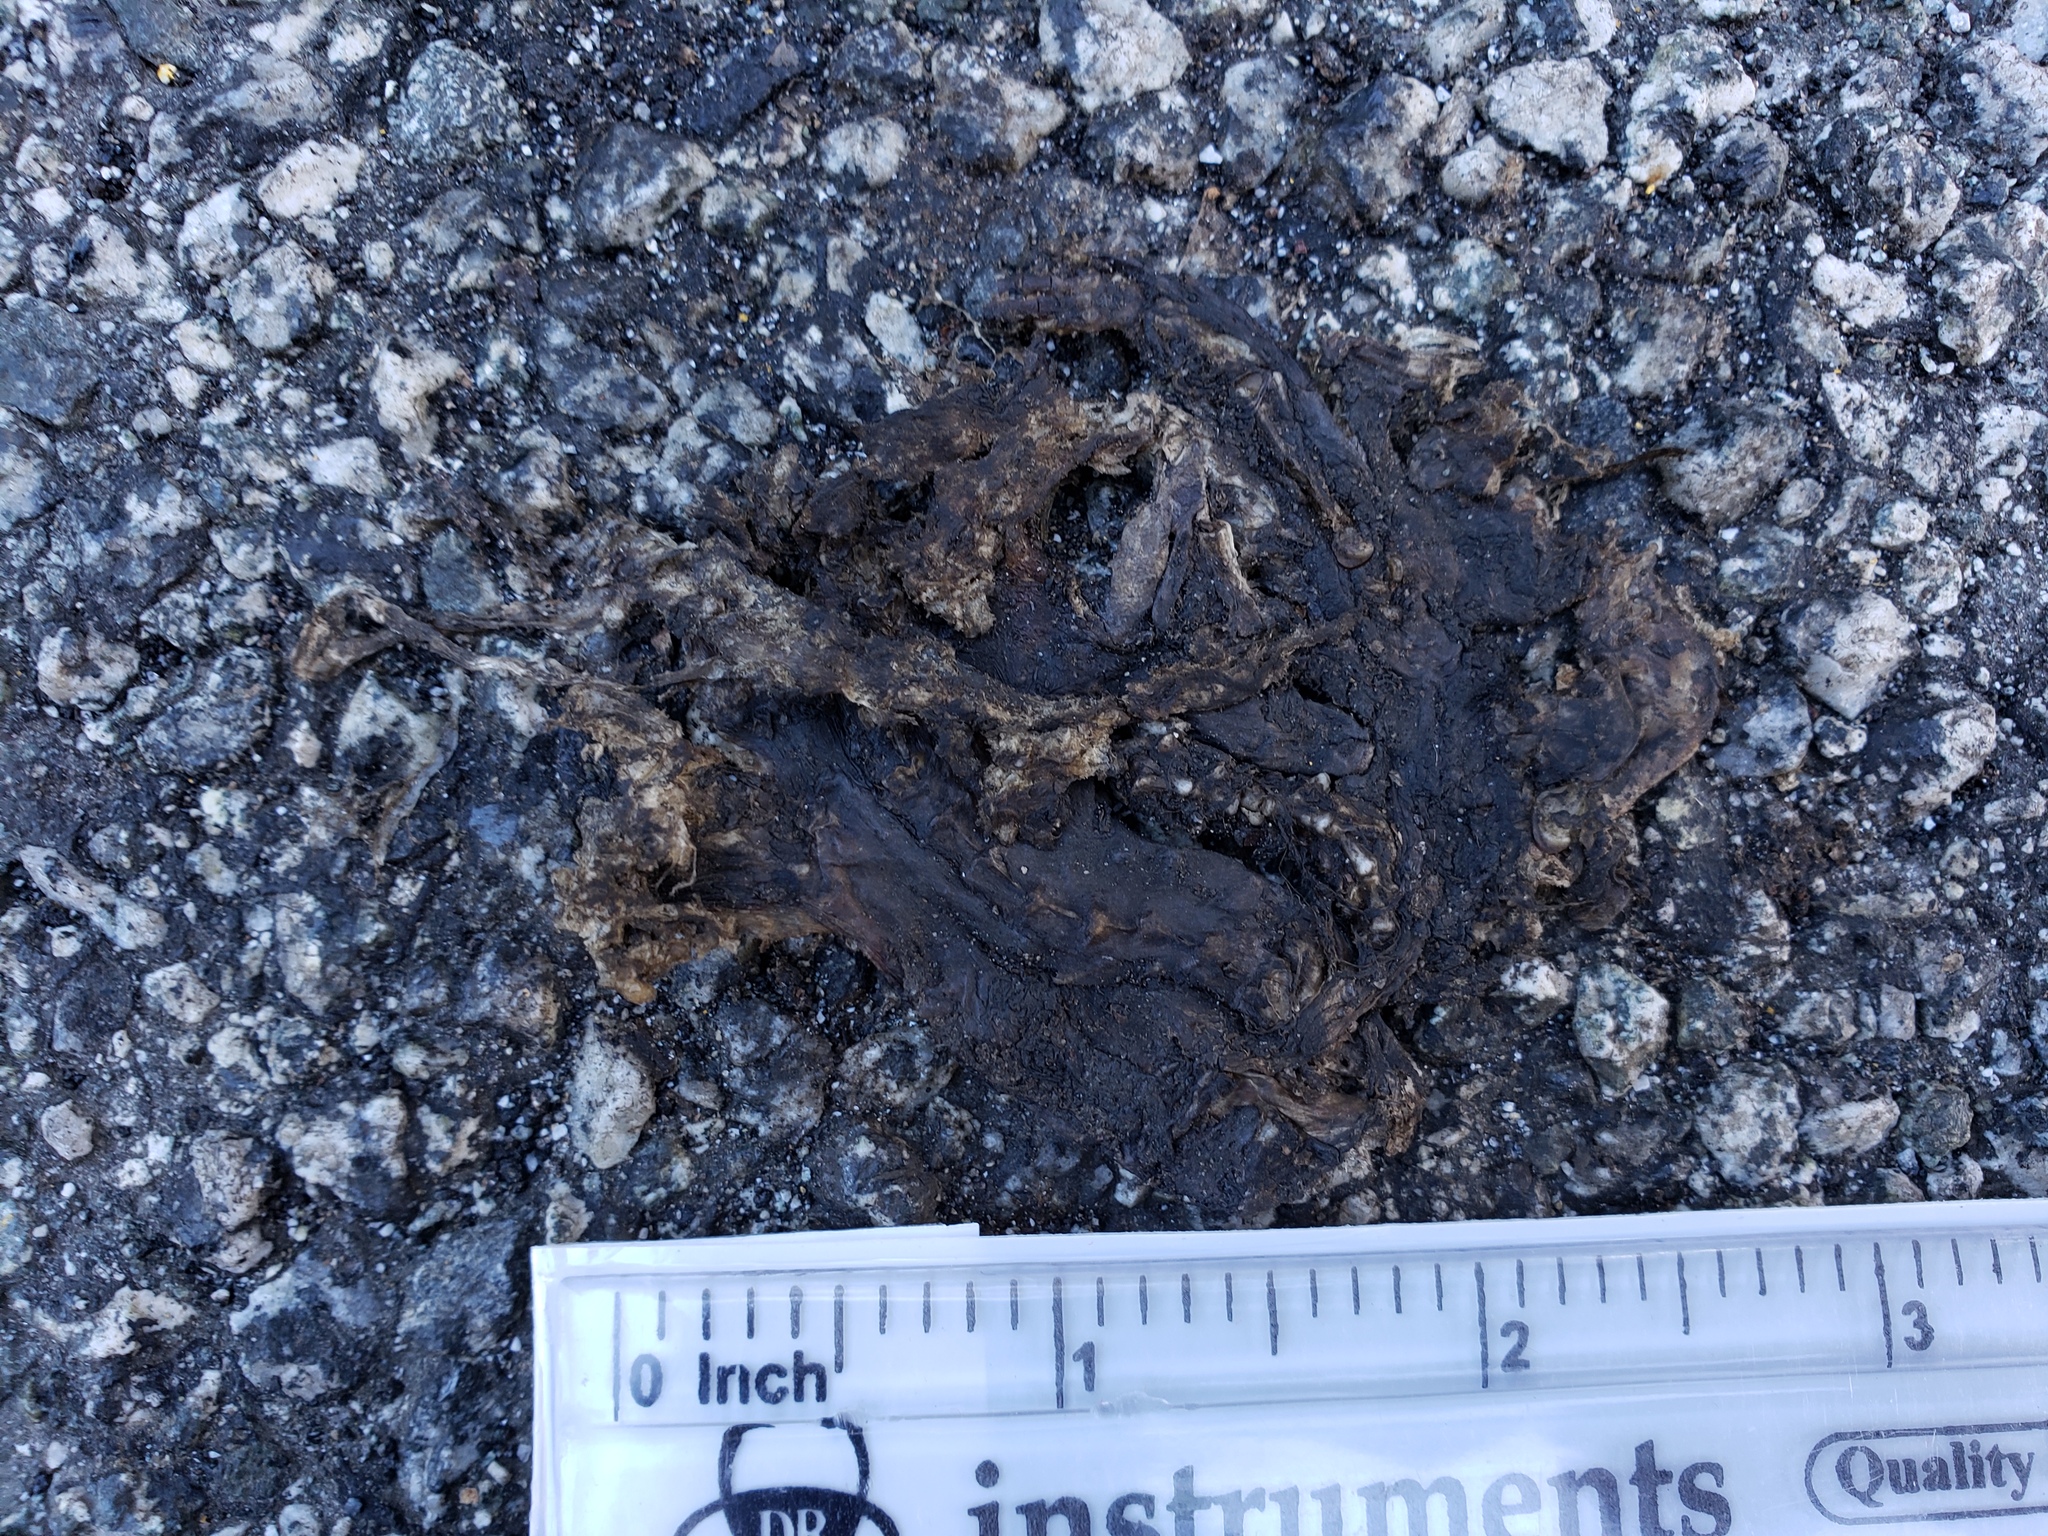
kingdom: Animalia
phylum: Chordata
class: Amphibia
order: Caudata
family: Salamandridae
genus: Taricha
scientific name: Taricha
